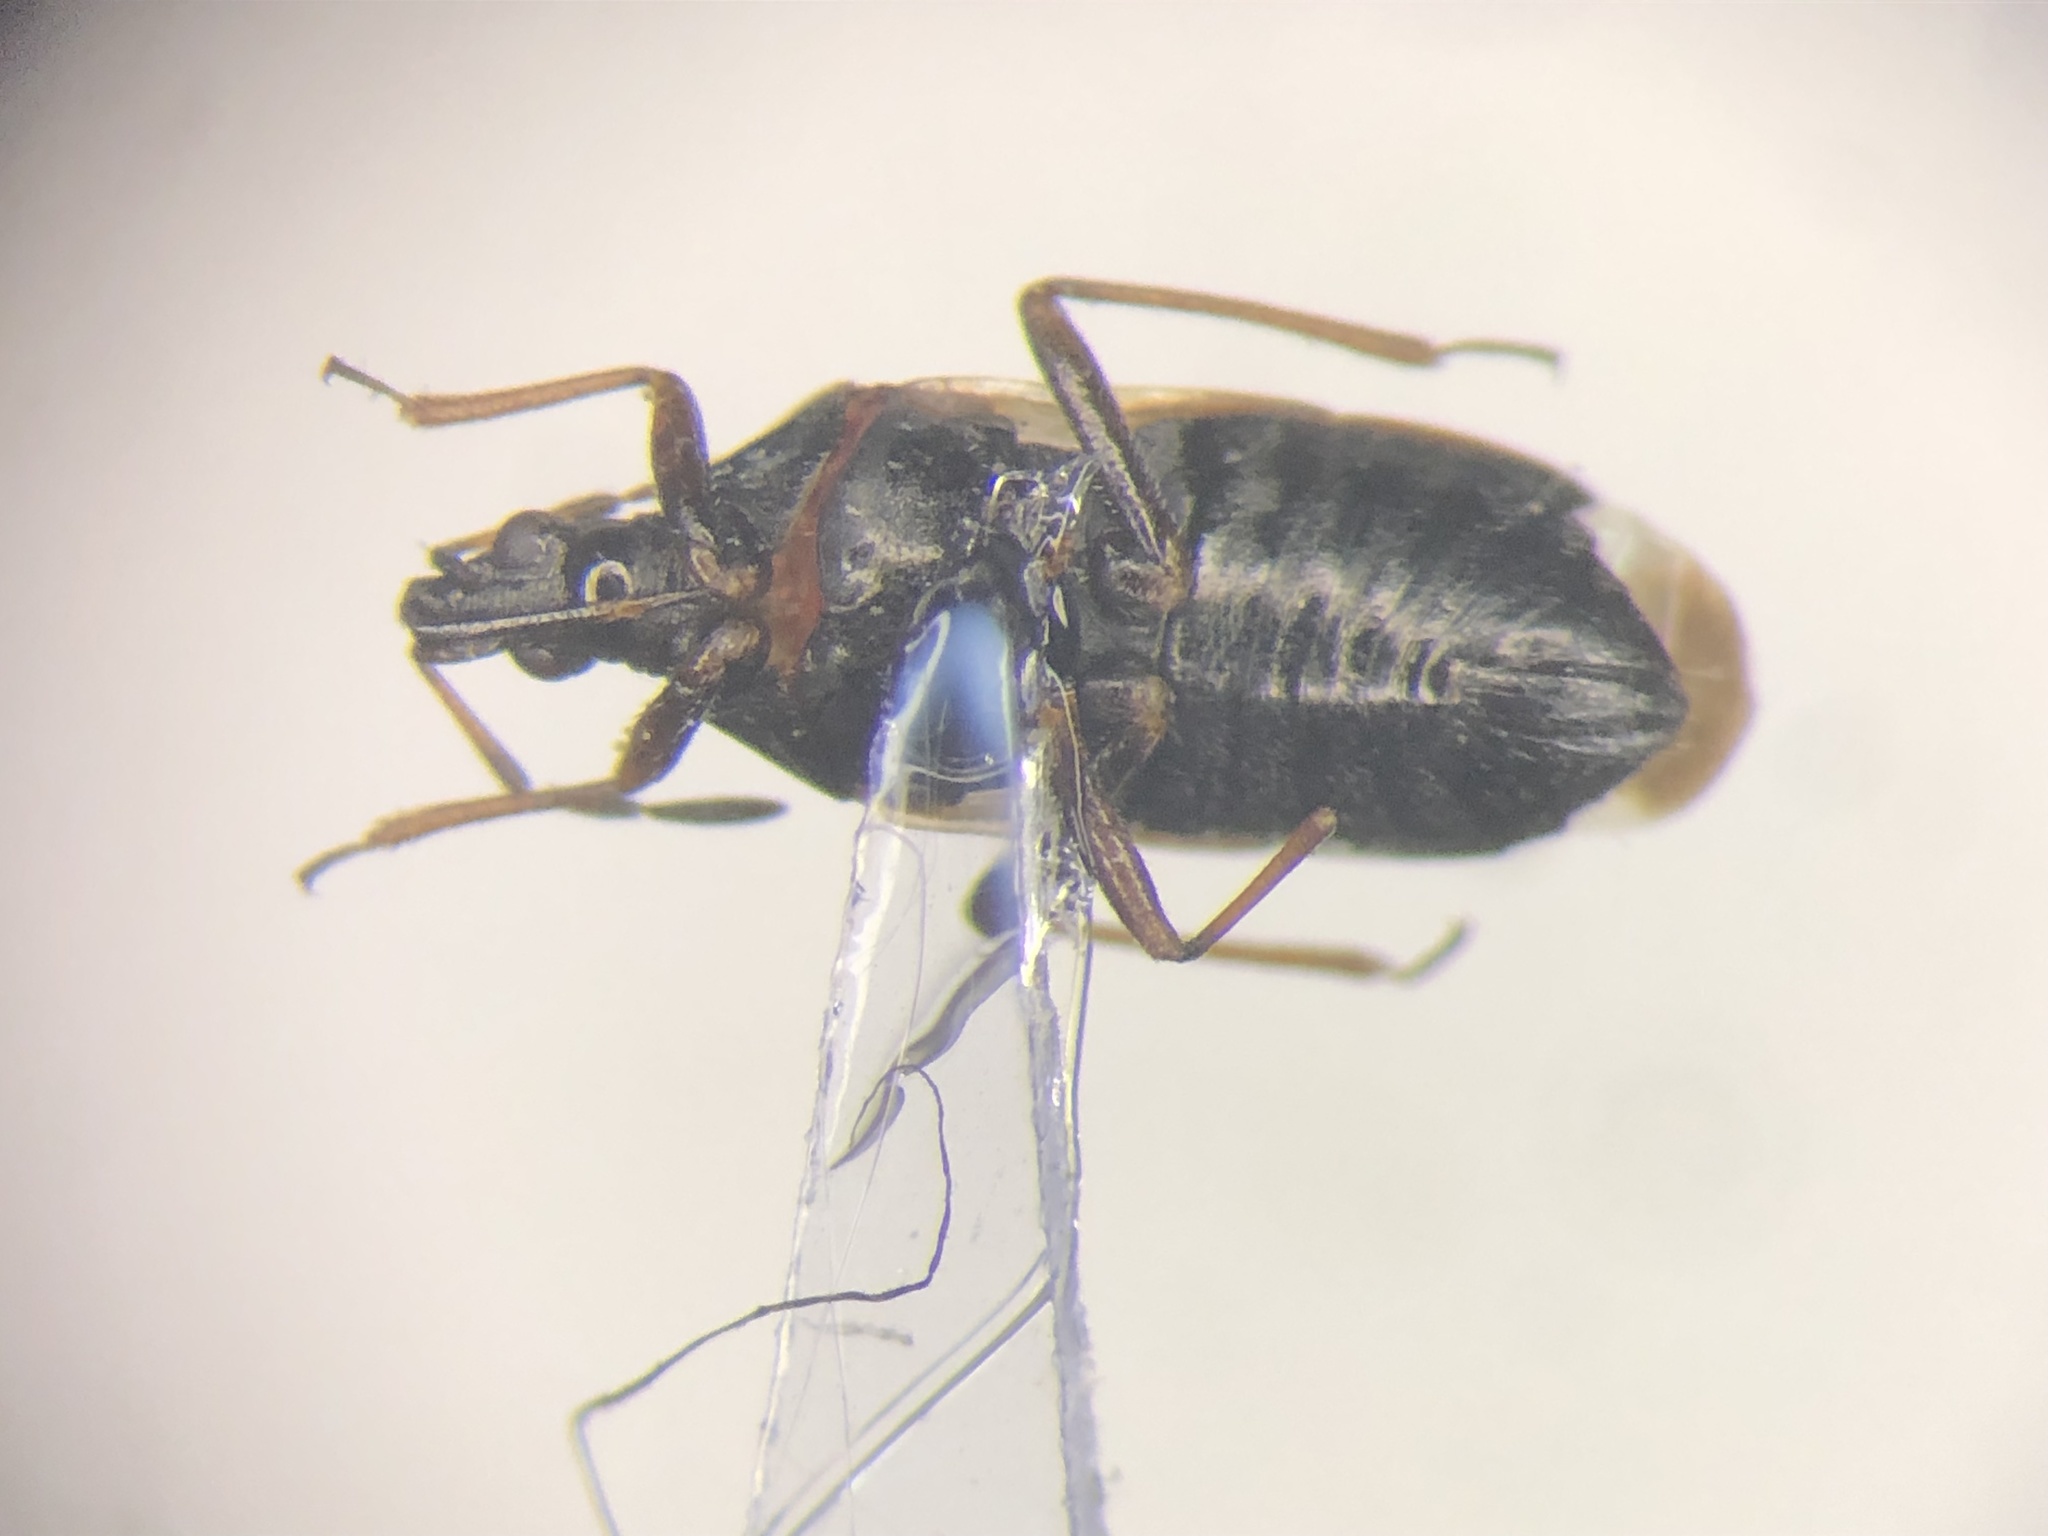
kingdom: Animalia
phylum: Arthropoda
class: Insecta
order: Hemiptera
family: Anthocoridae
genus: Anthocoris
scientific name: Anthocoris musculus
